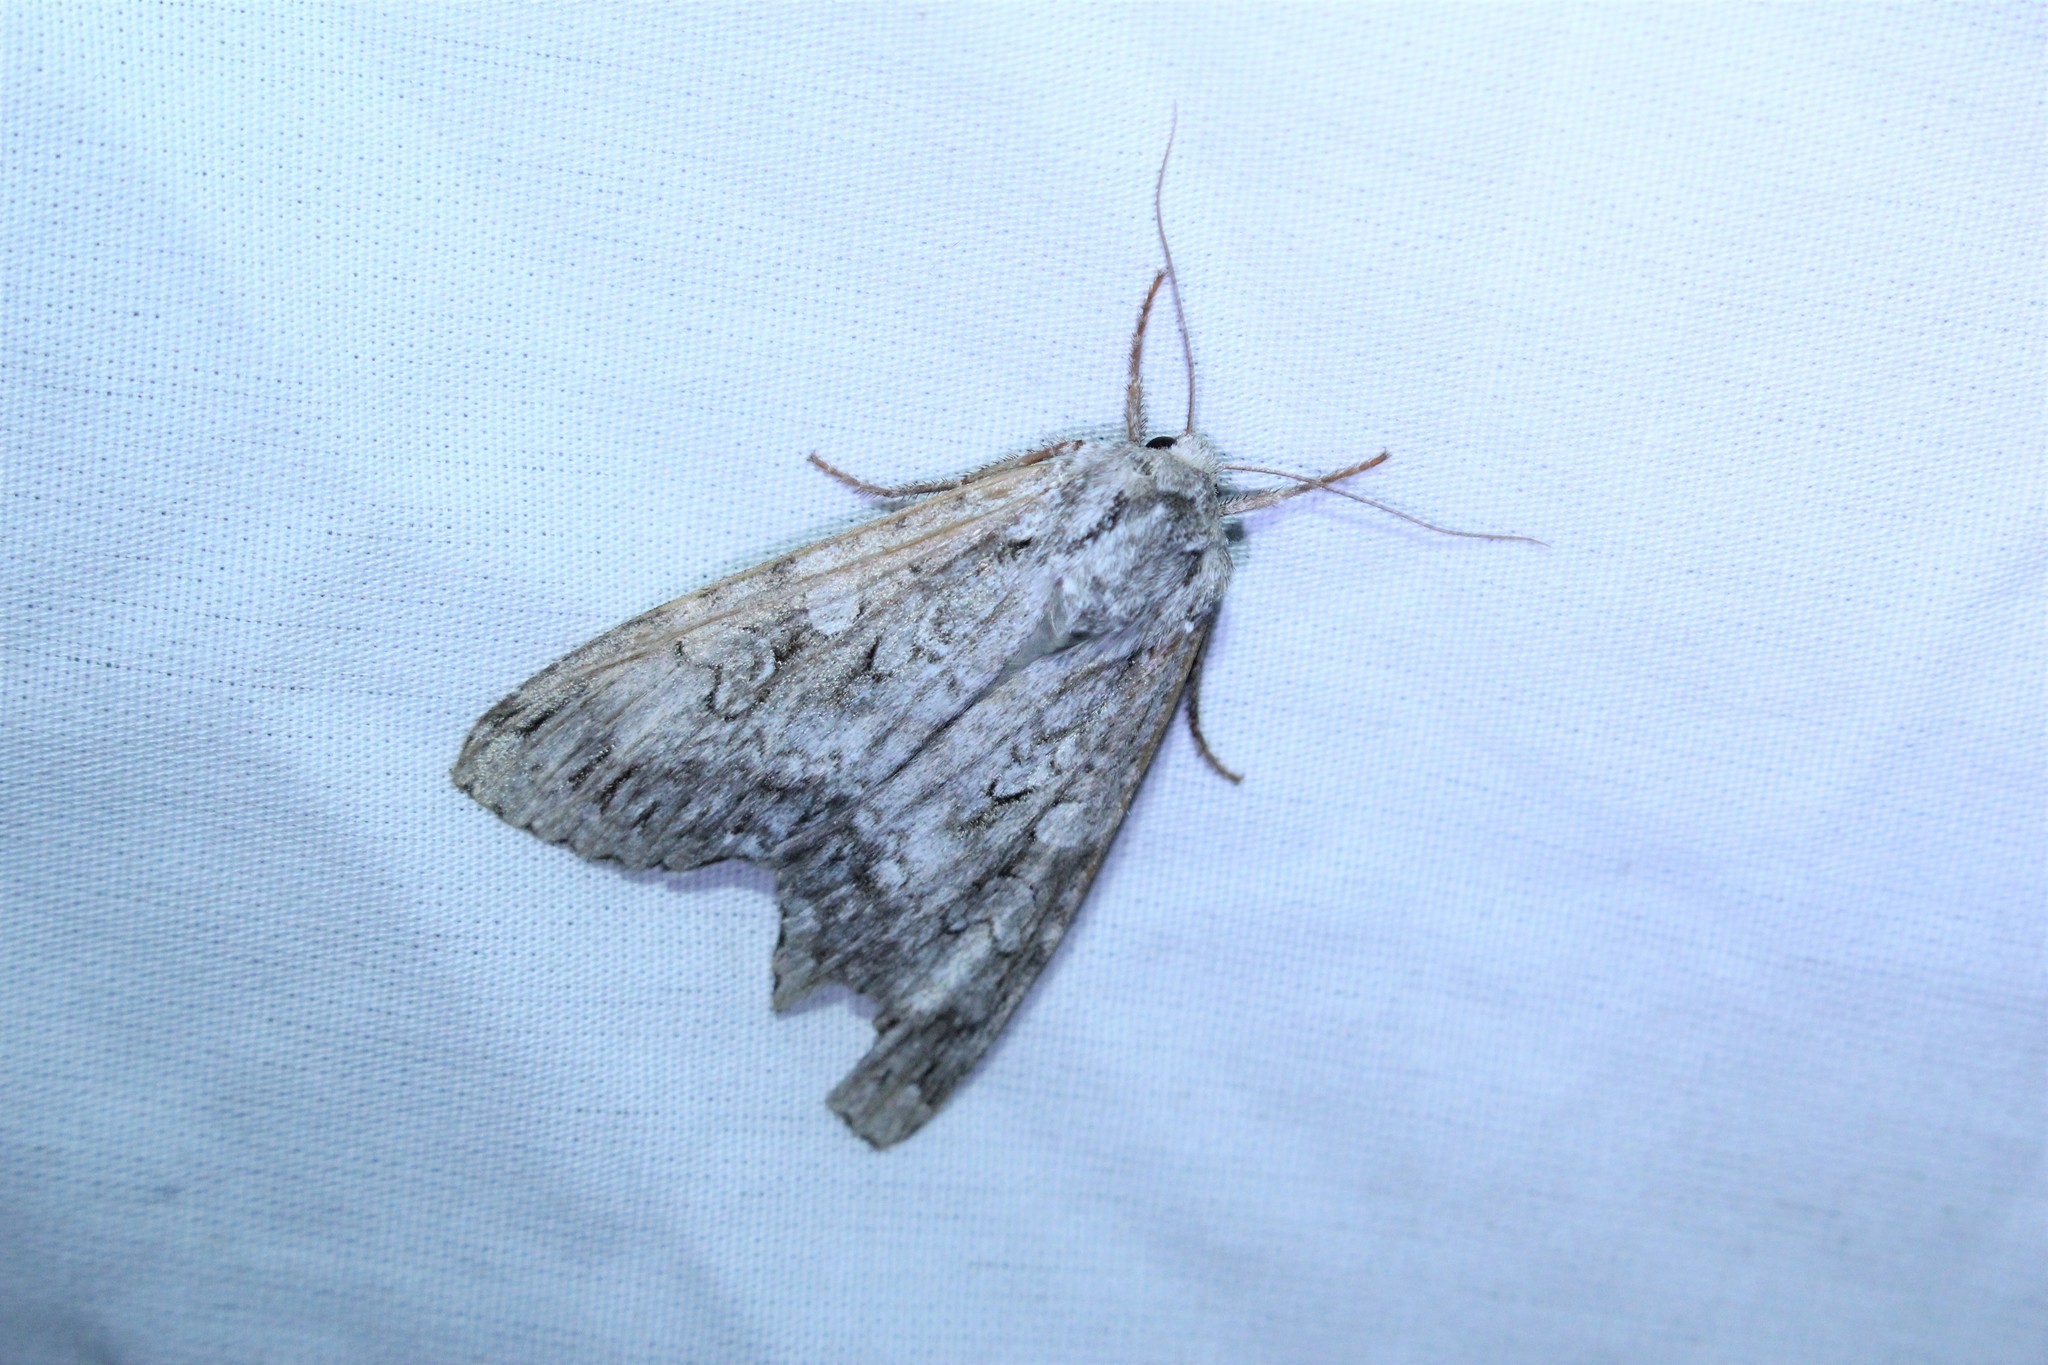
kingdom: Animalia
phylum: Arthropoda
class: Insecta
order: Lepidoptera
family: Noctuidae
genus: Eurois
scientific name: Eurois occulta
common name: Great brocade
